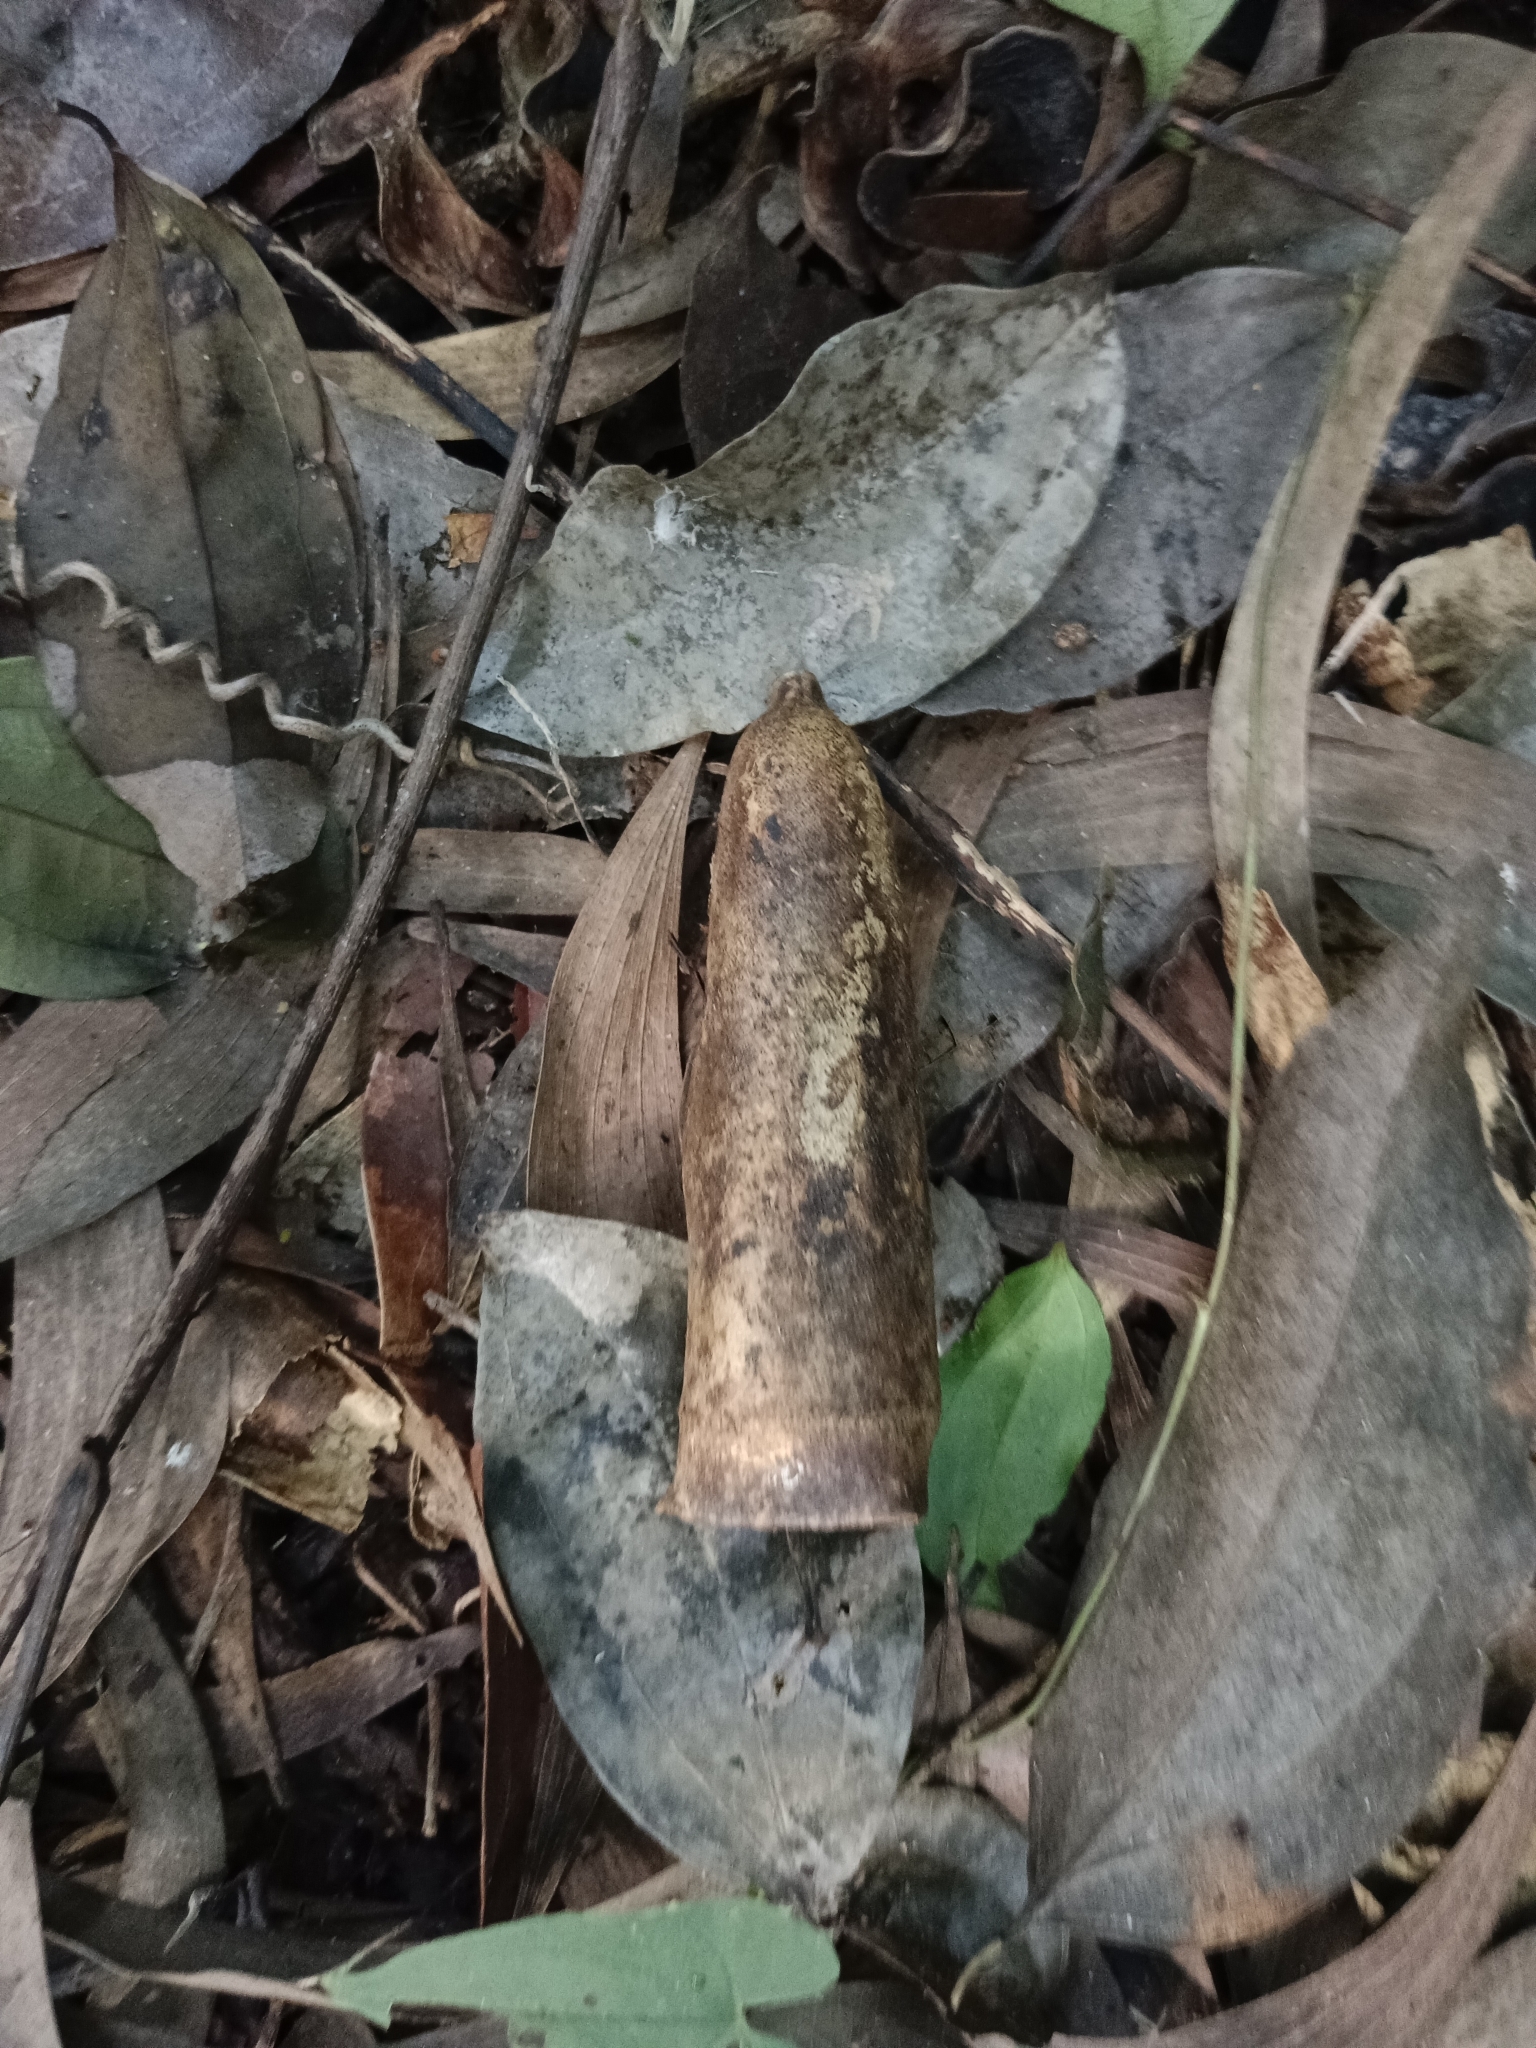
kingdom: Plantae
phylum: Tracheophyta
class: Magnoliopsida
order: Cucurbitales
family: Cucurbitaceae
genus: Zanonia
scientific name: Zanonia indica
